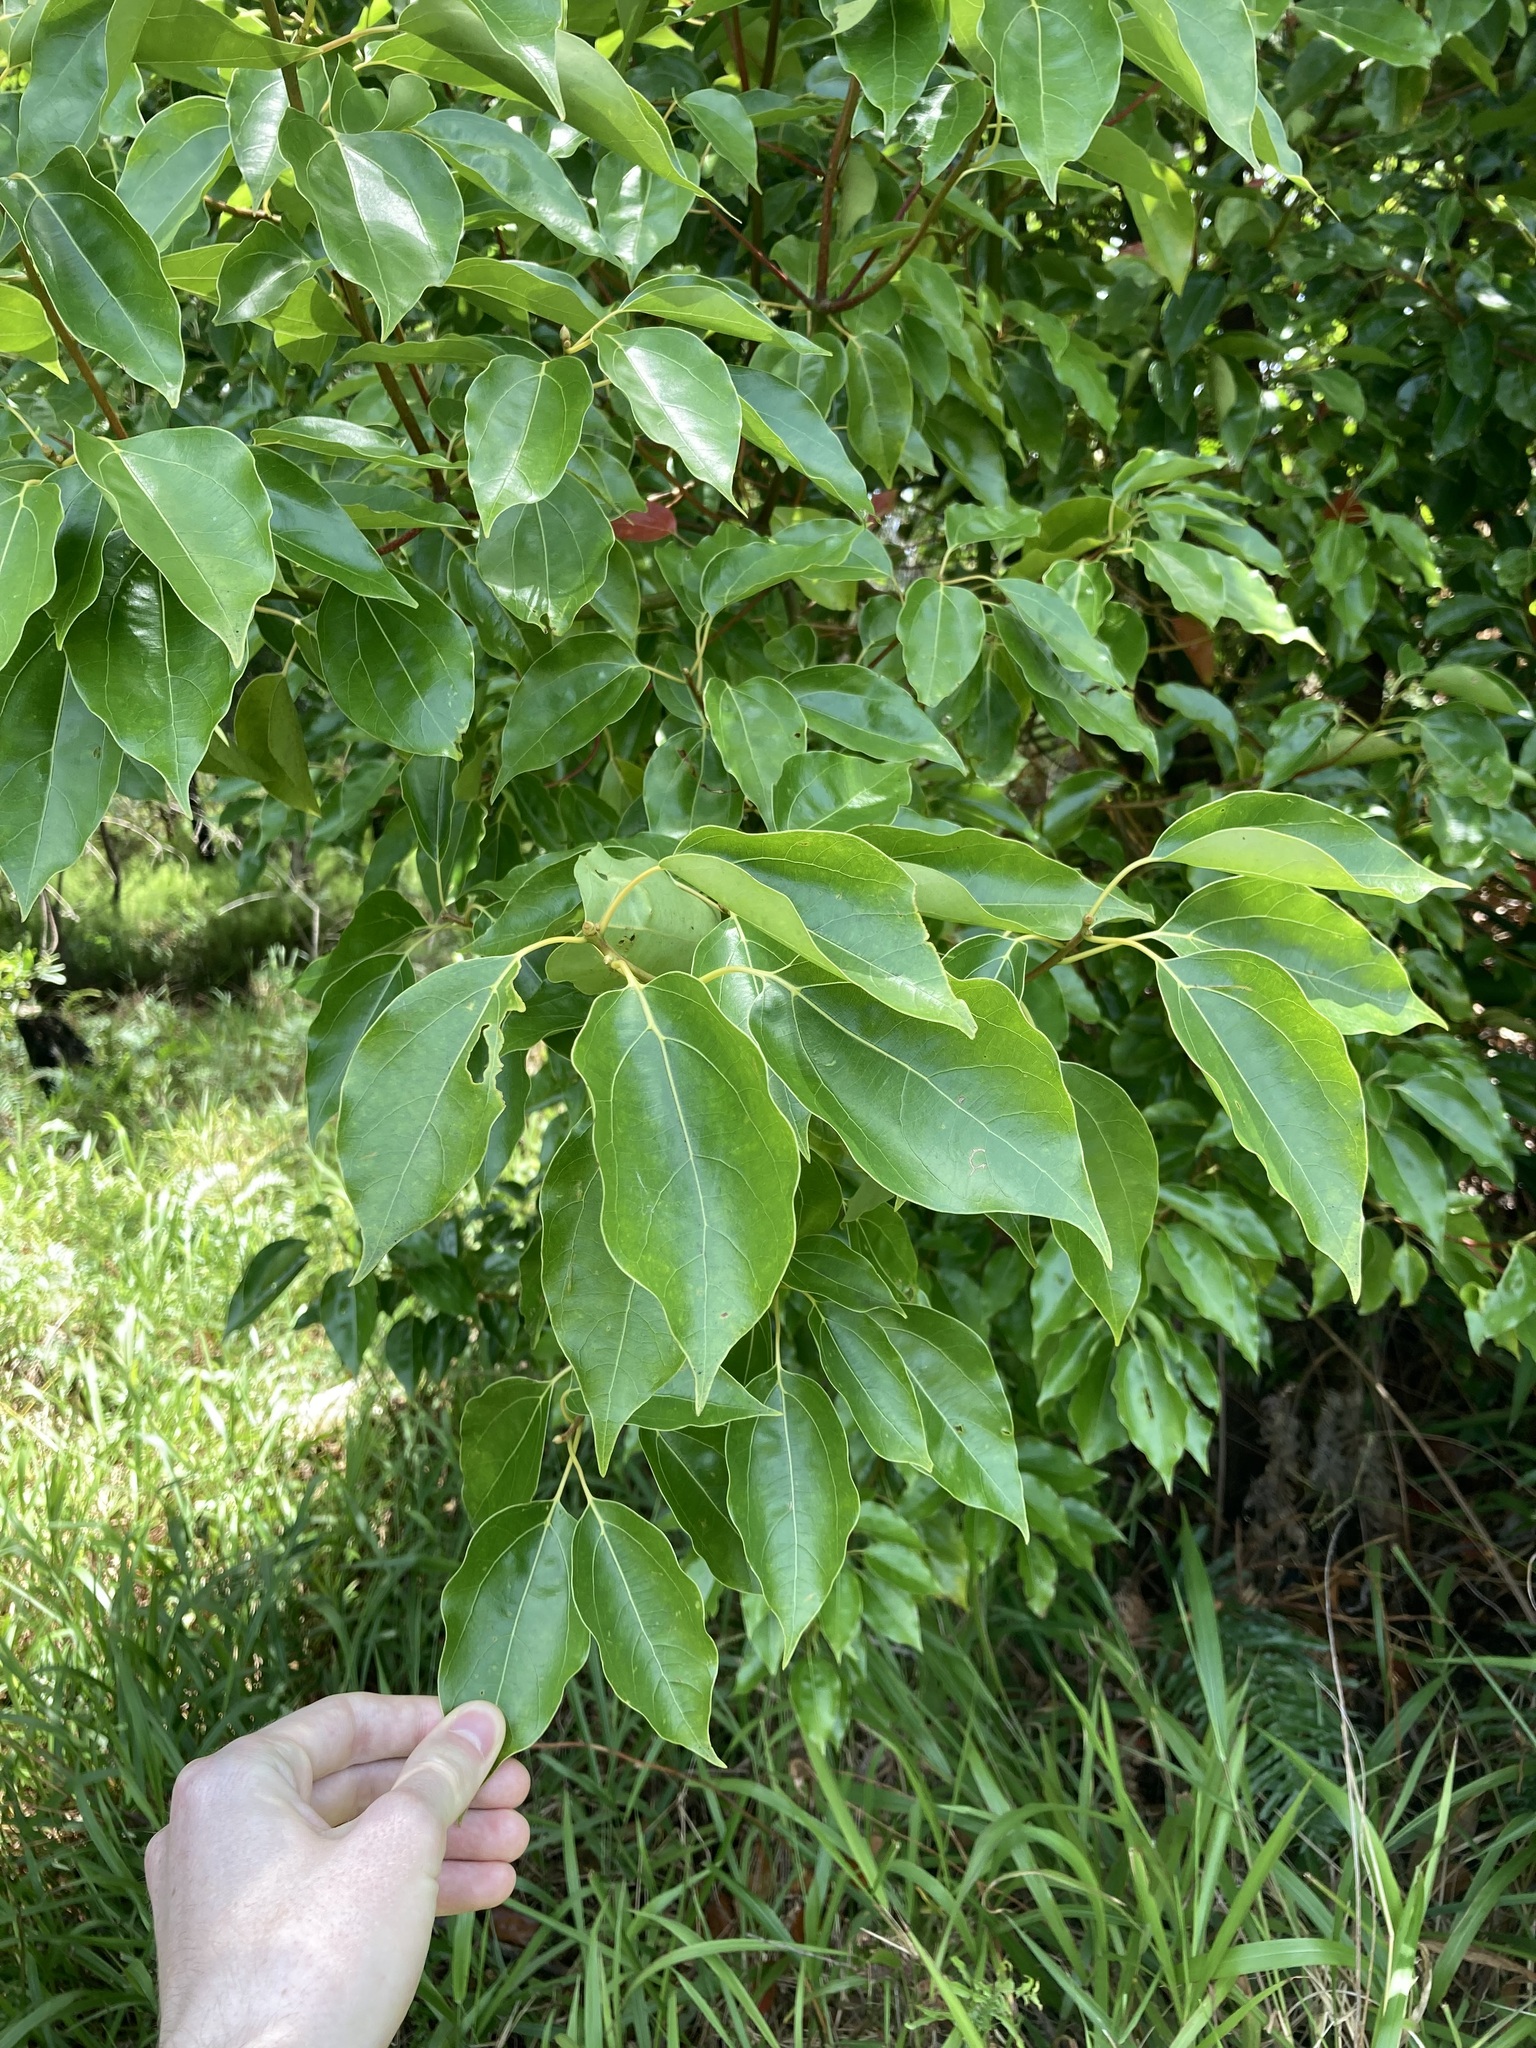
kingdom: Plantae
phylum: Tracheophyta
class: Magnoliopsida
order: Laurales
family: Lauraceae
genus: Cinnamomum
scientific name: Cinnamomum camphora
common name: Camphortree
